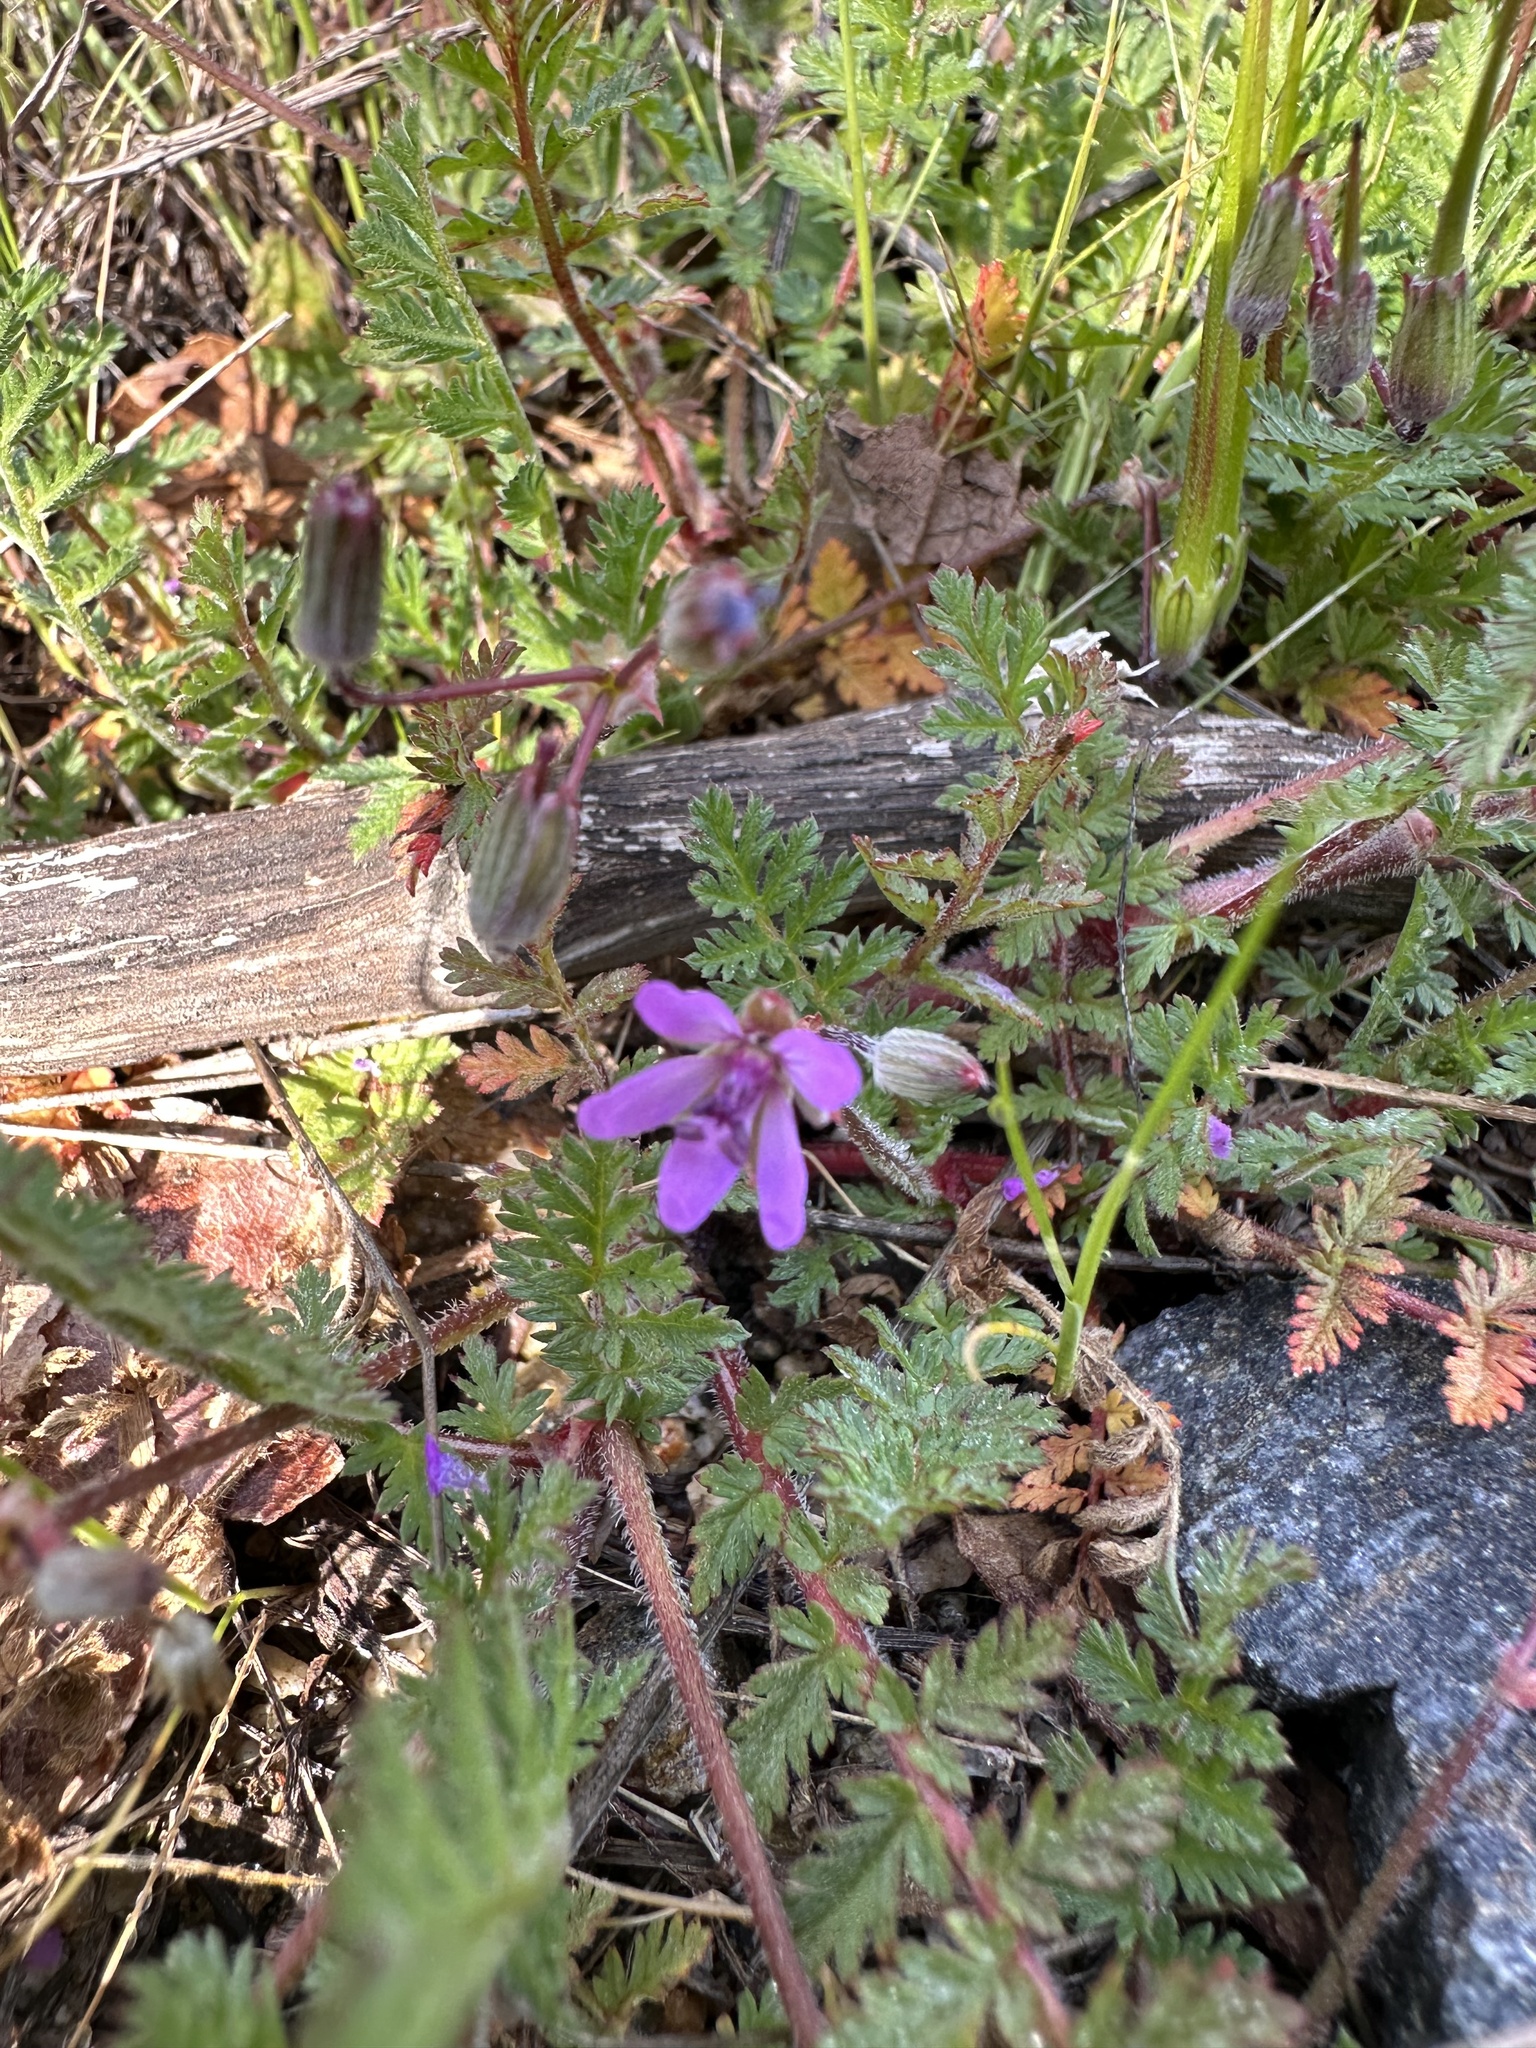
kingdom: Plantae
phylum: Tracheophyta
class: Magnoliopsida
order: Geraniales
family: Geraniaceae
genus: Erodium
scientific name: Erodium cicutarium
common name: Common stork's-bill
